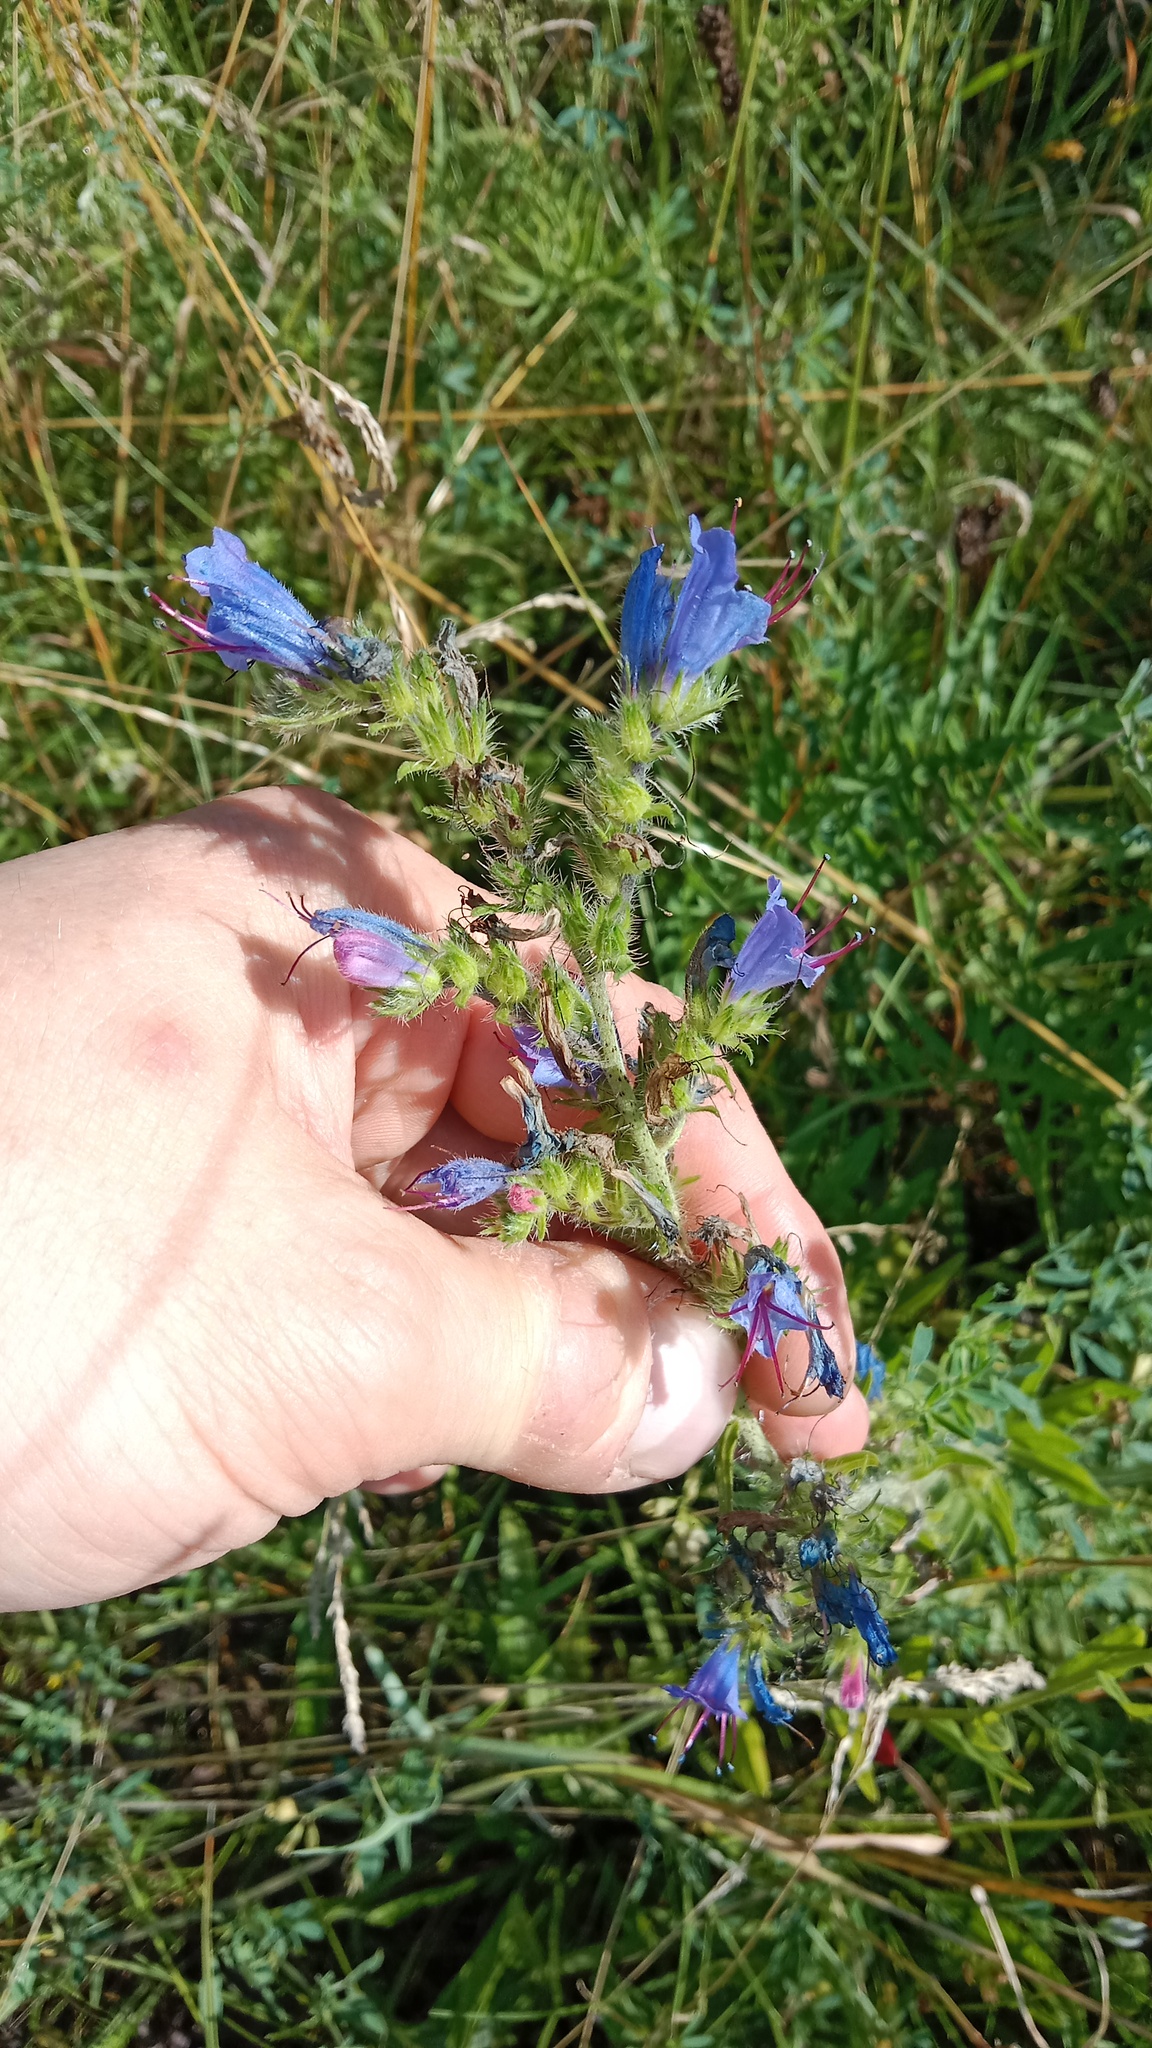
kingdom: Plantae
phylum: Tracheophyta
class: Magnoliopsida
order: Boraginales
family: Boraginaceae
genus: Echium
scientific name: Echium vulgare
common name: Common viper's bugloss
